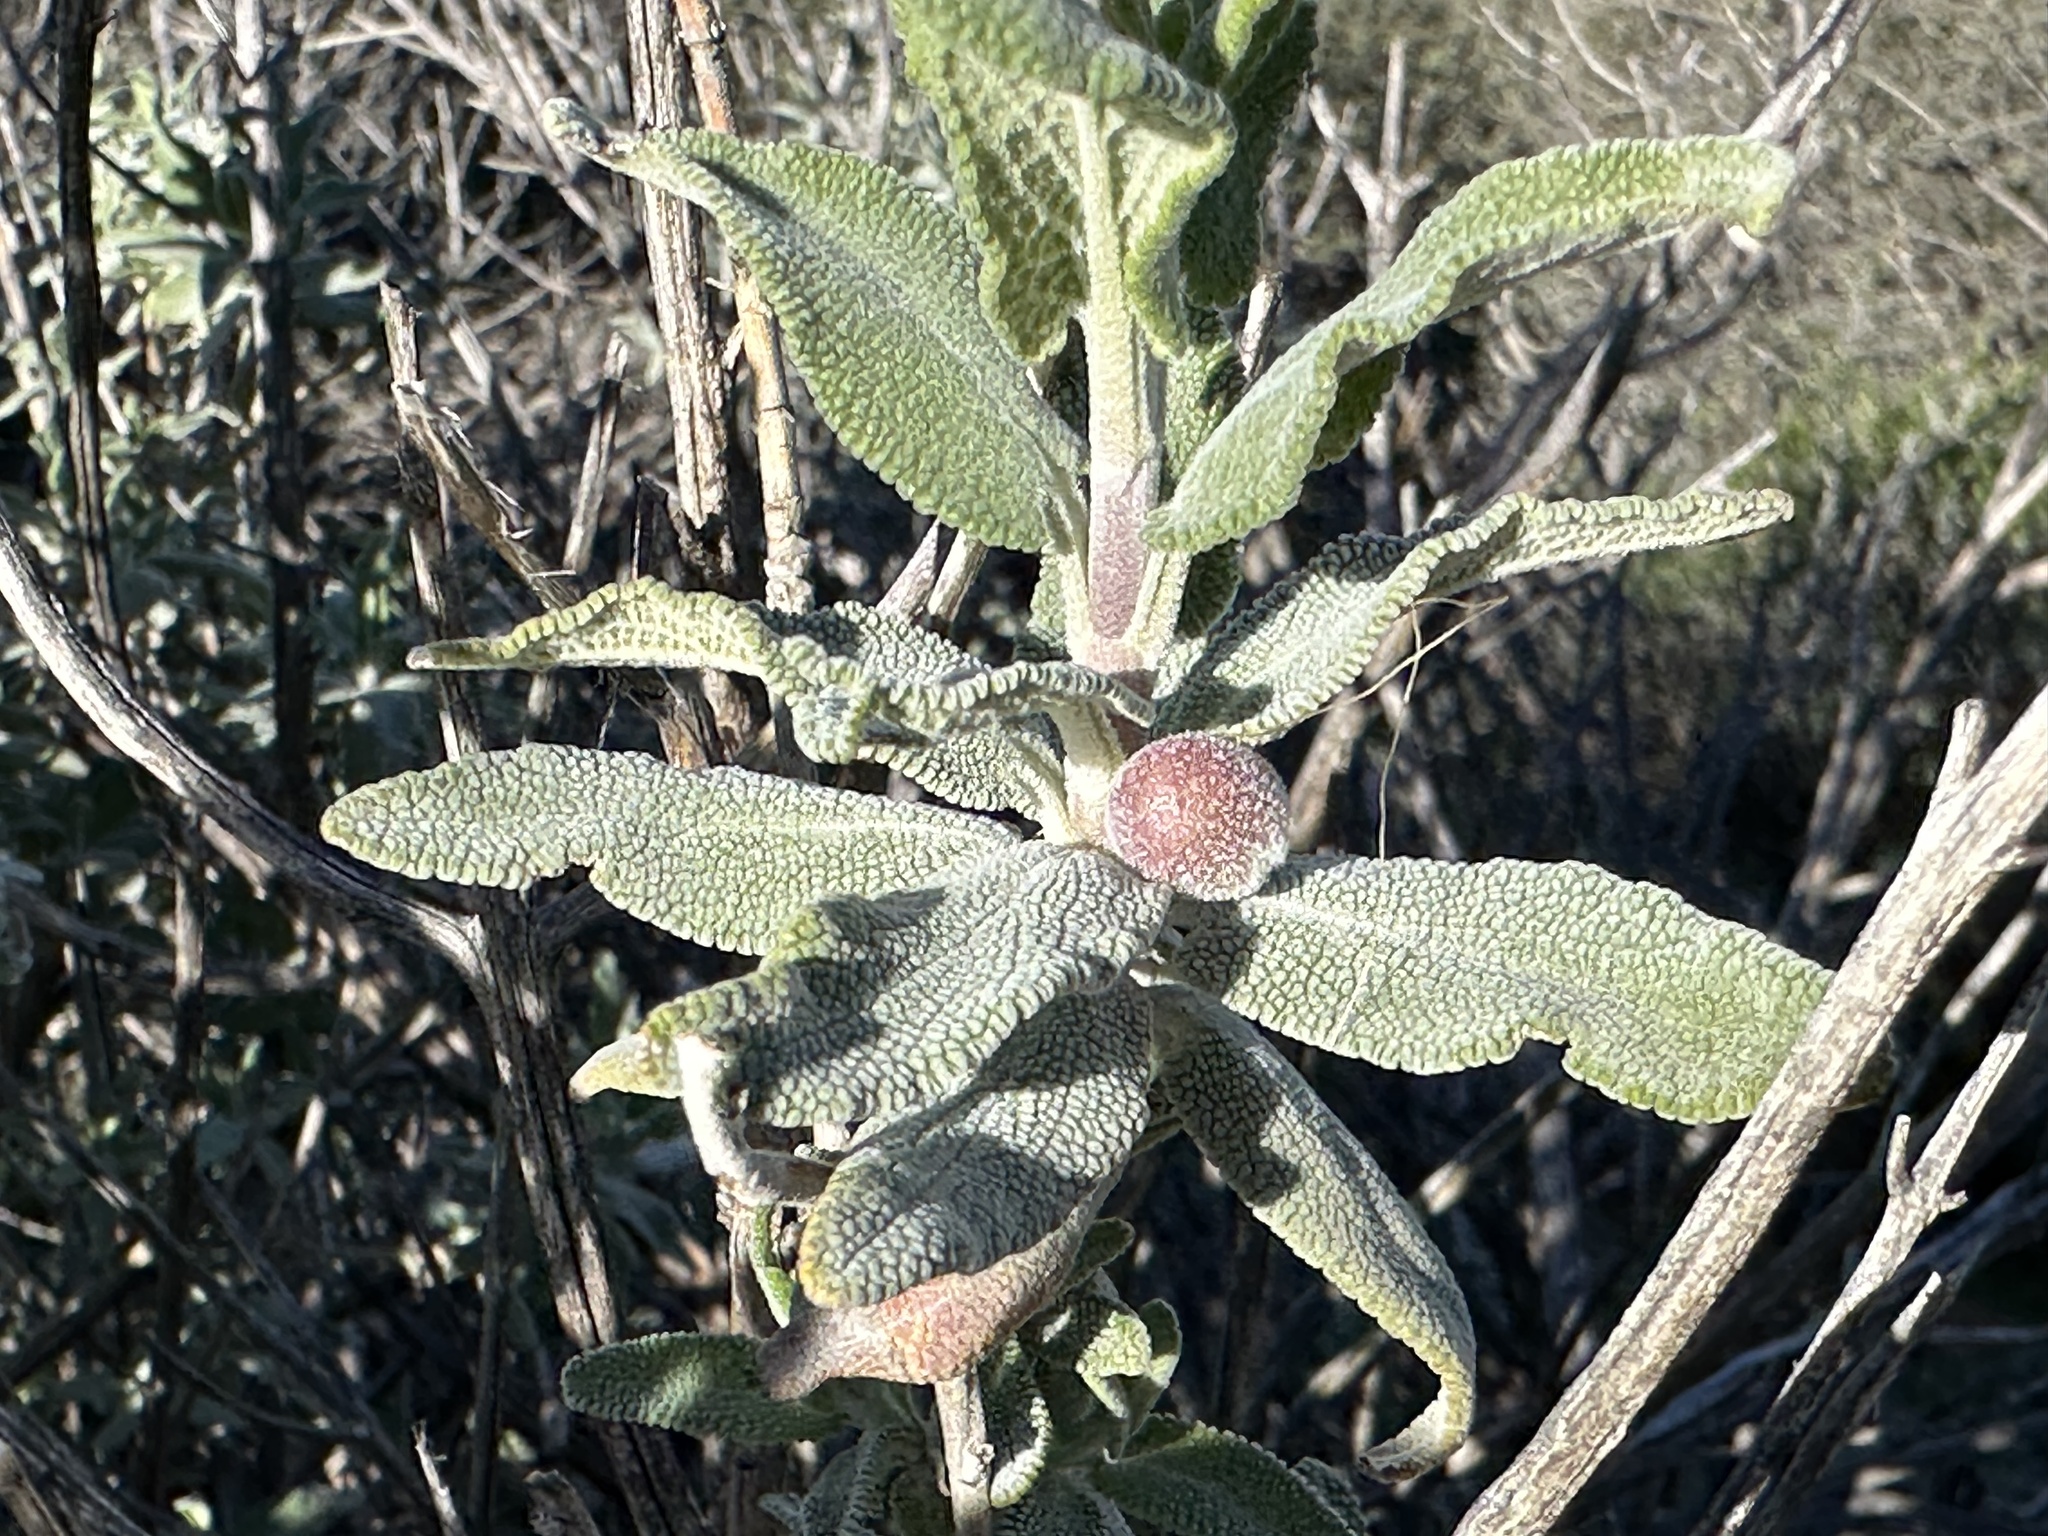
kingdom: Plantae
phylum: Tracheophyta
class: Magnoliopsida
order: Lamiales
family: Lamiaceae
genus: Salvia
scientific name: Salvia leucophylla
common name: Purple sage
